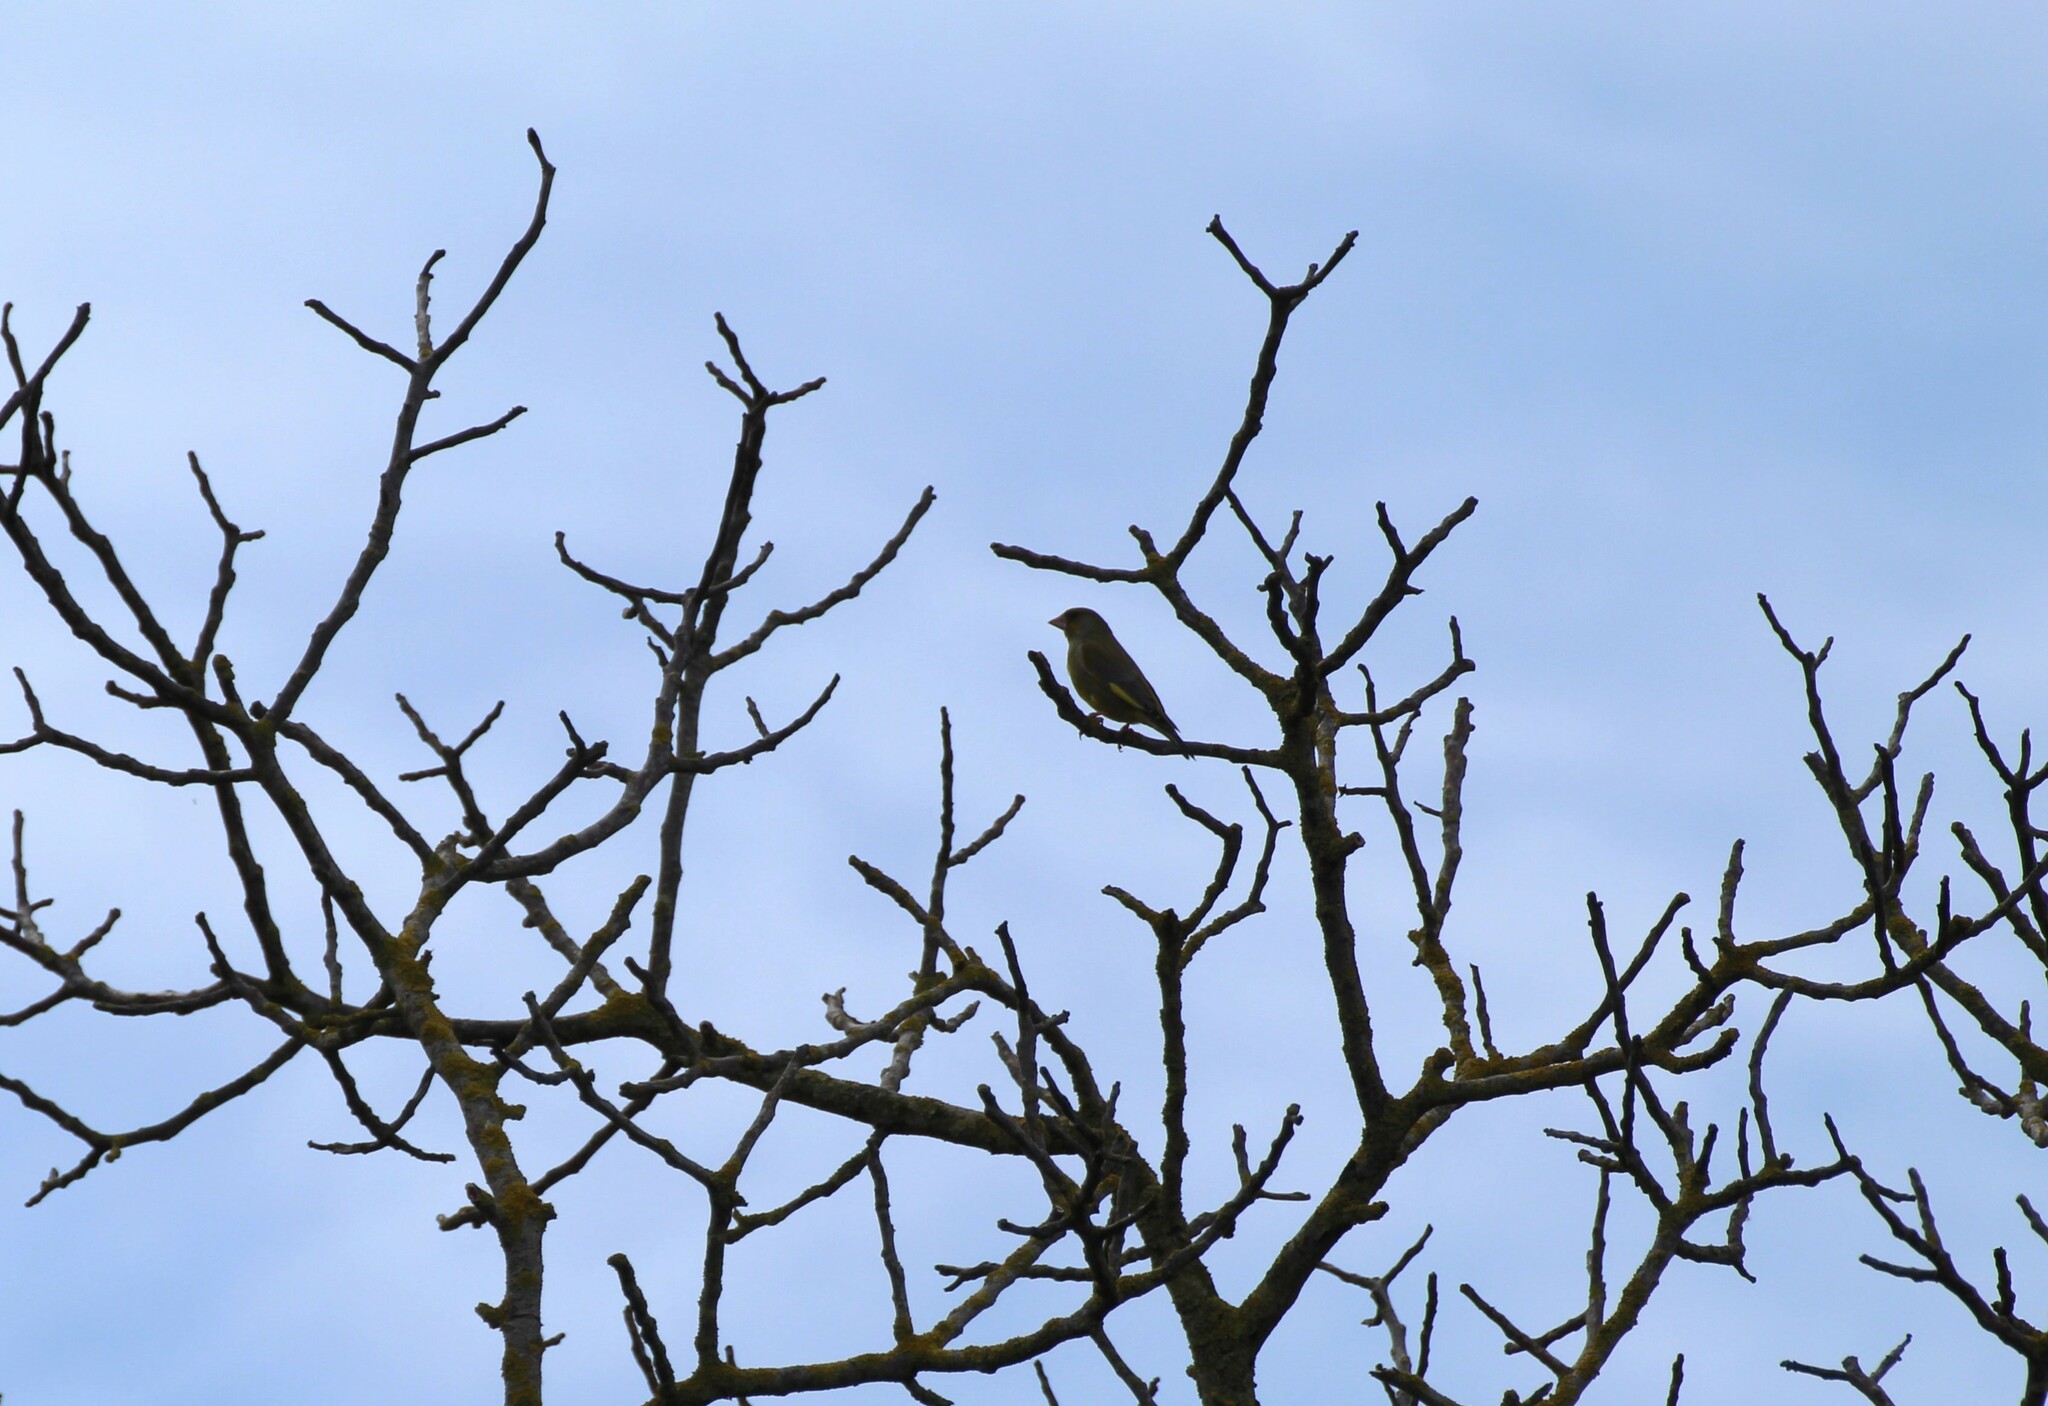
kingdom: Plantae
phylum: Tracheophyta
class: Liliopsida
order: Poales
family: Poaceae
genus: Chloris
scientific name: Chloris chloris
